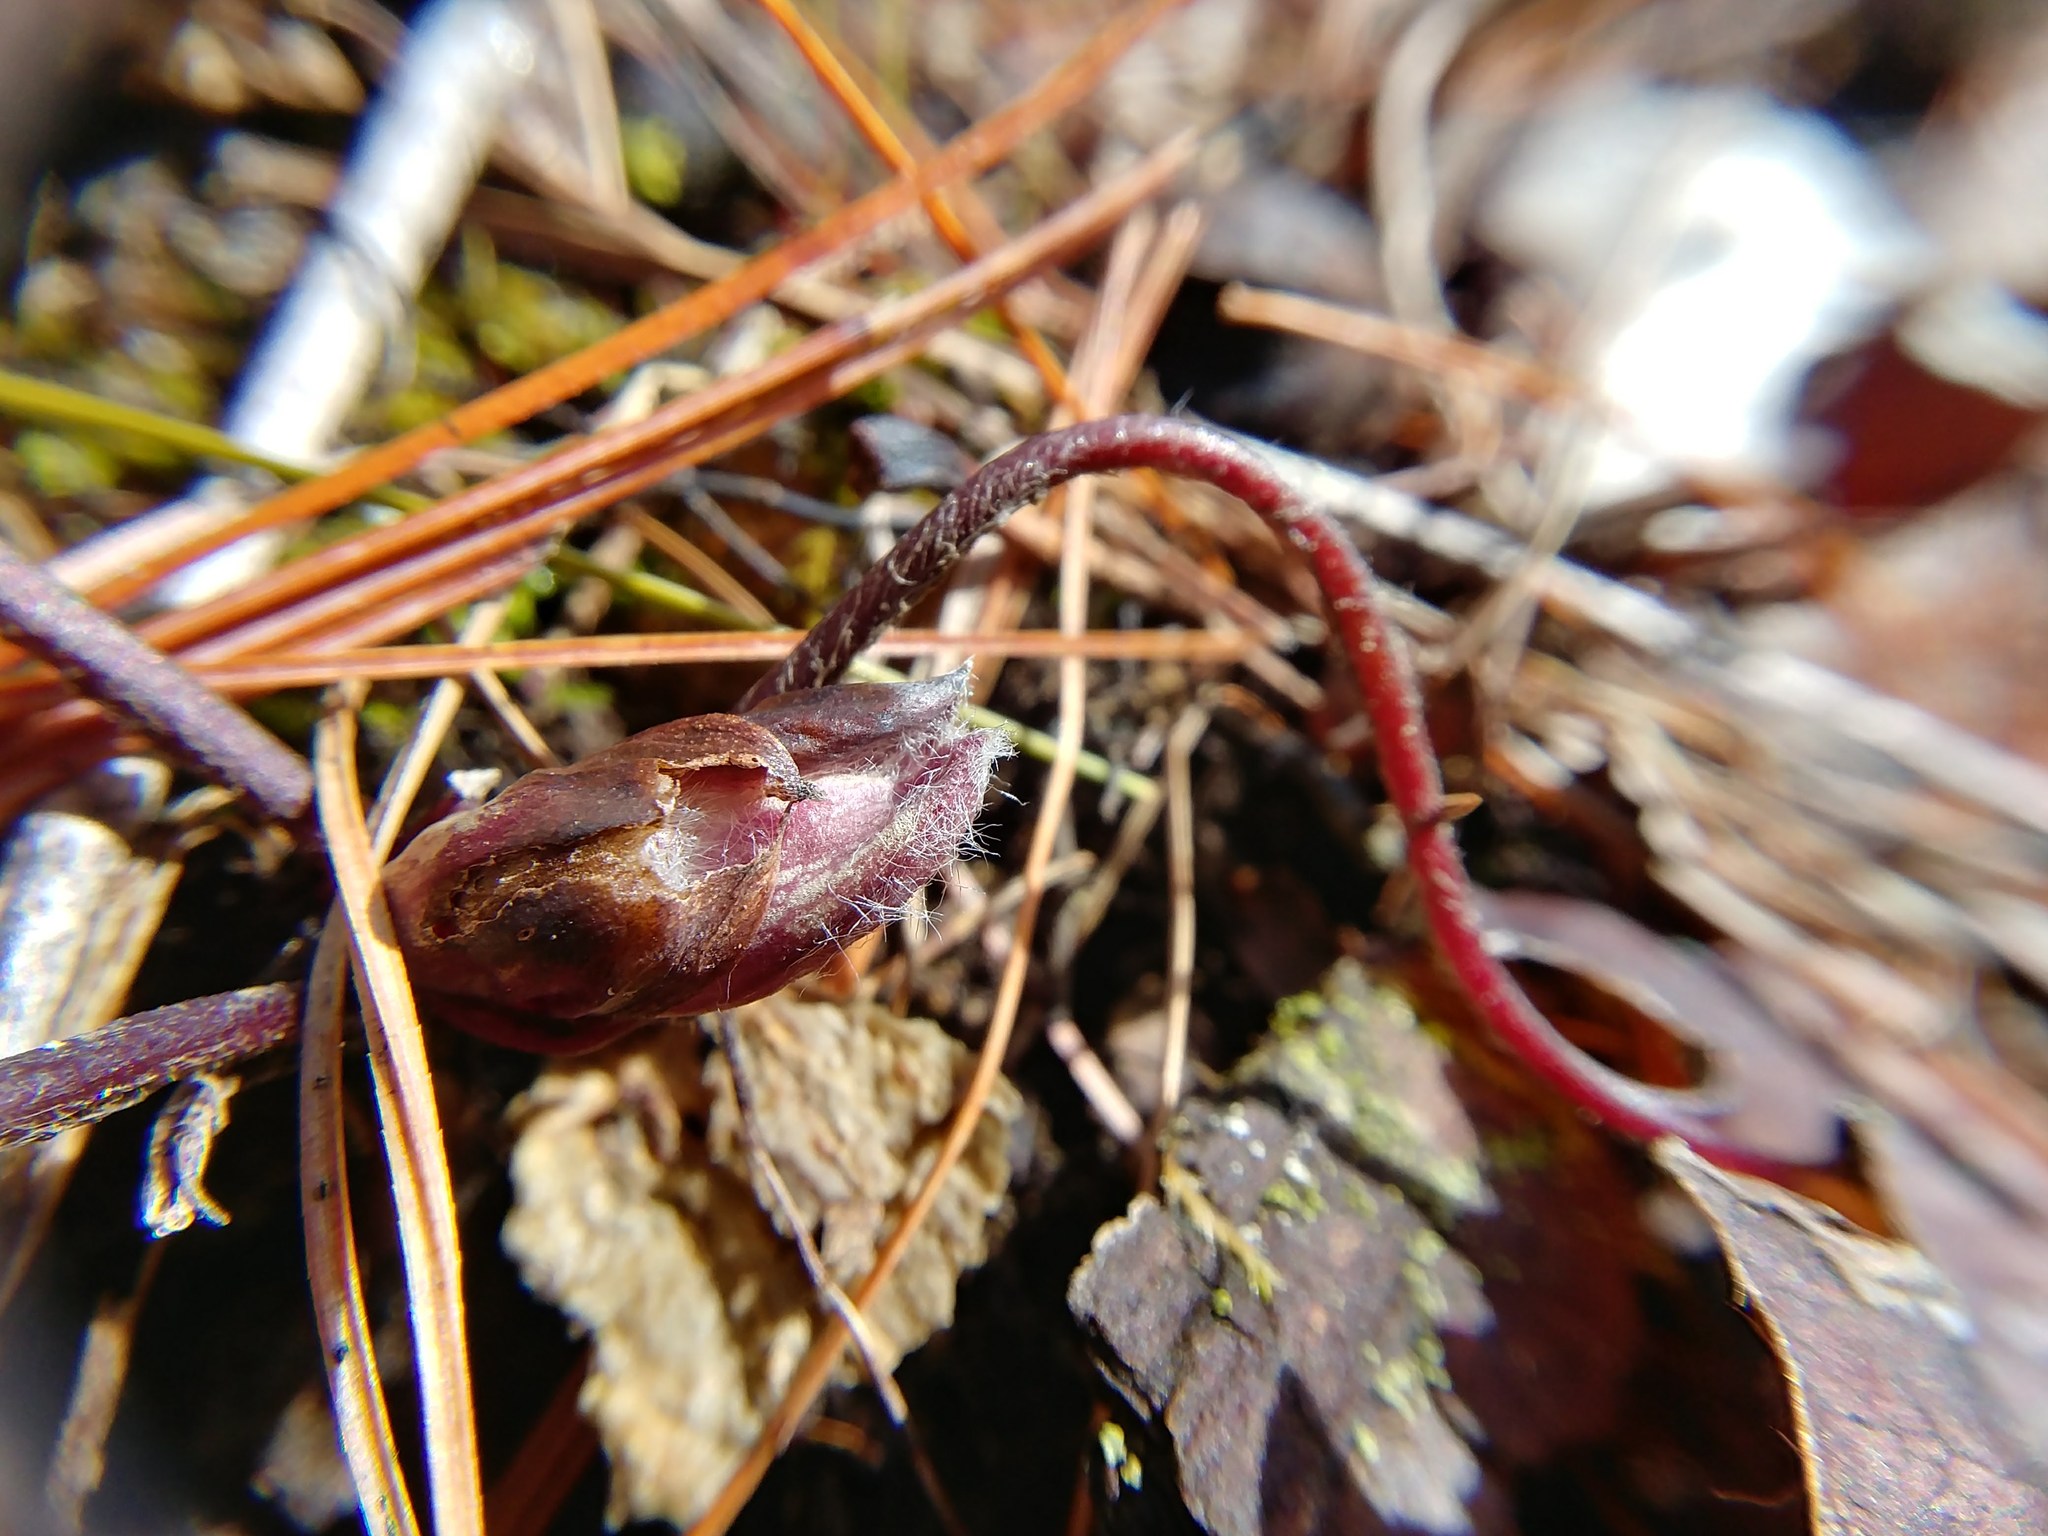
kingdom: Plantae
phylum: Tracheophyta
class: Magnoliopsida
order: Ranunculales
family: Ranunculaceae
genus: Hepatica
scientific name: Hepatica americana
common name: American hepatica
